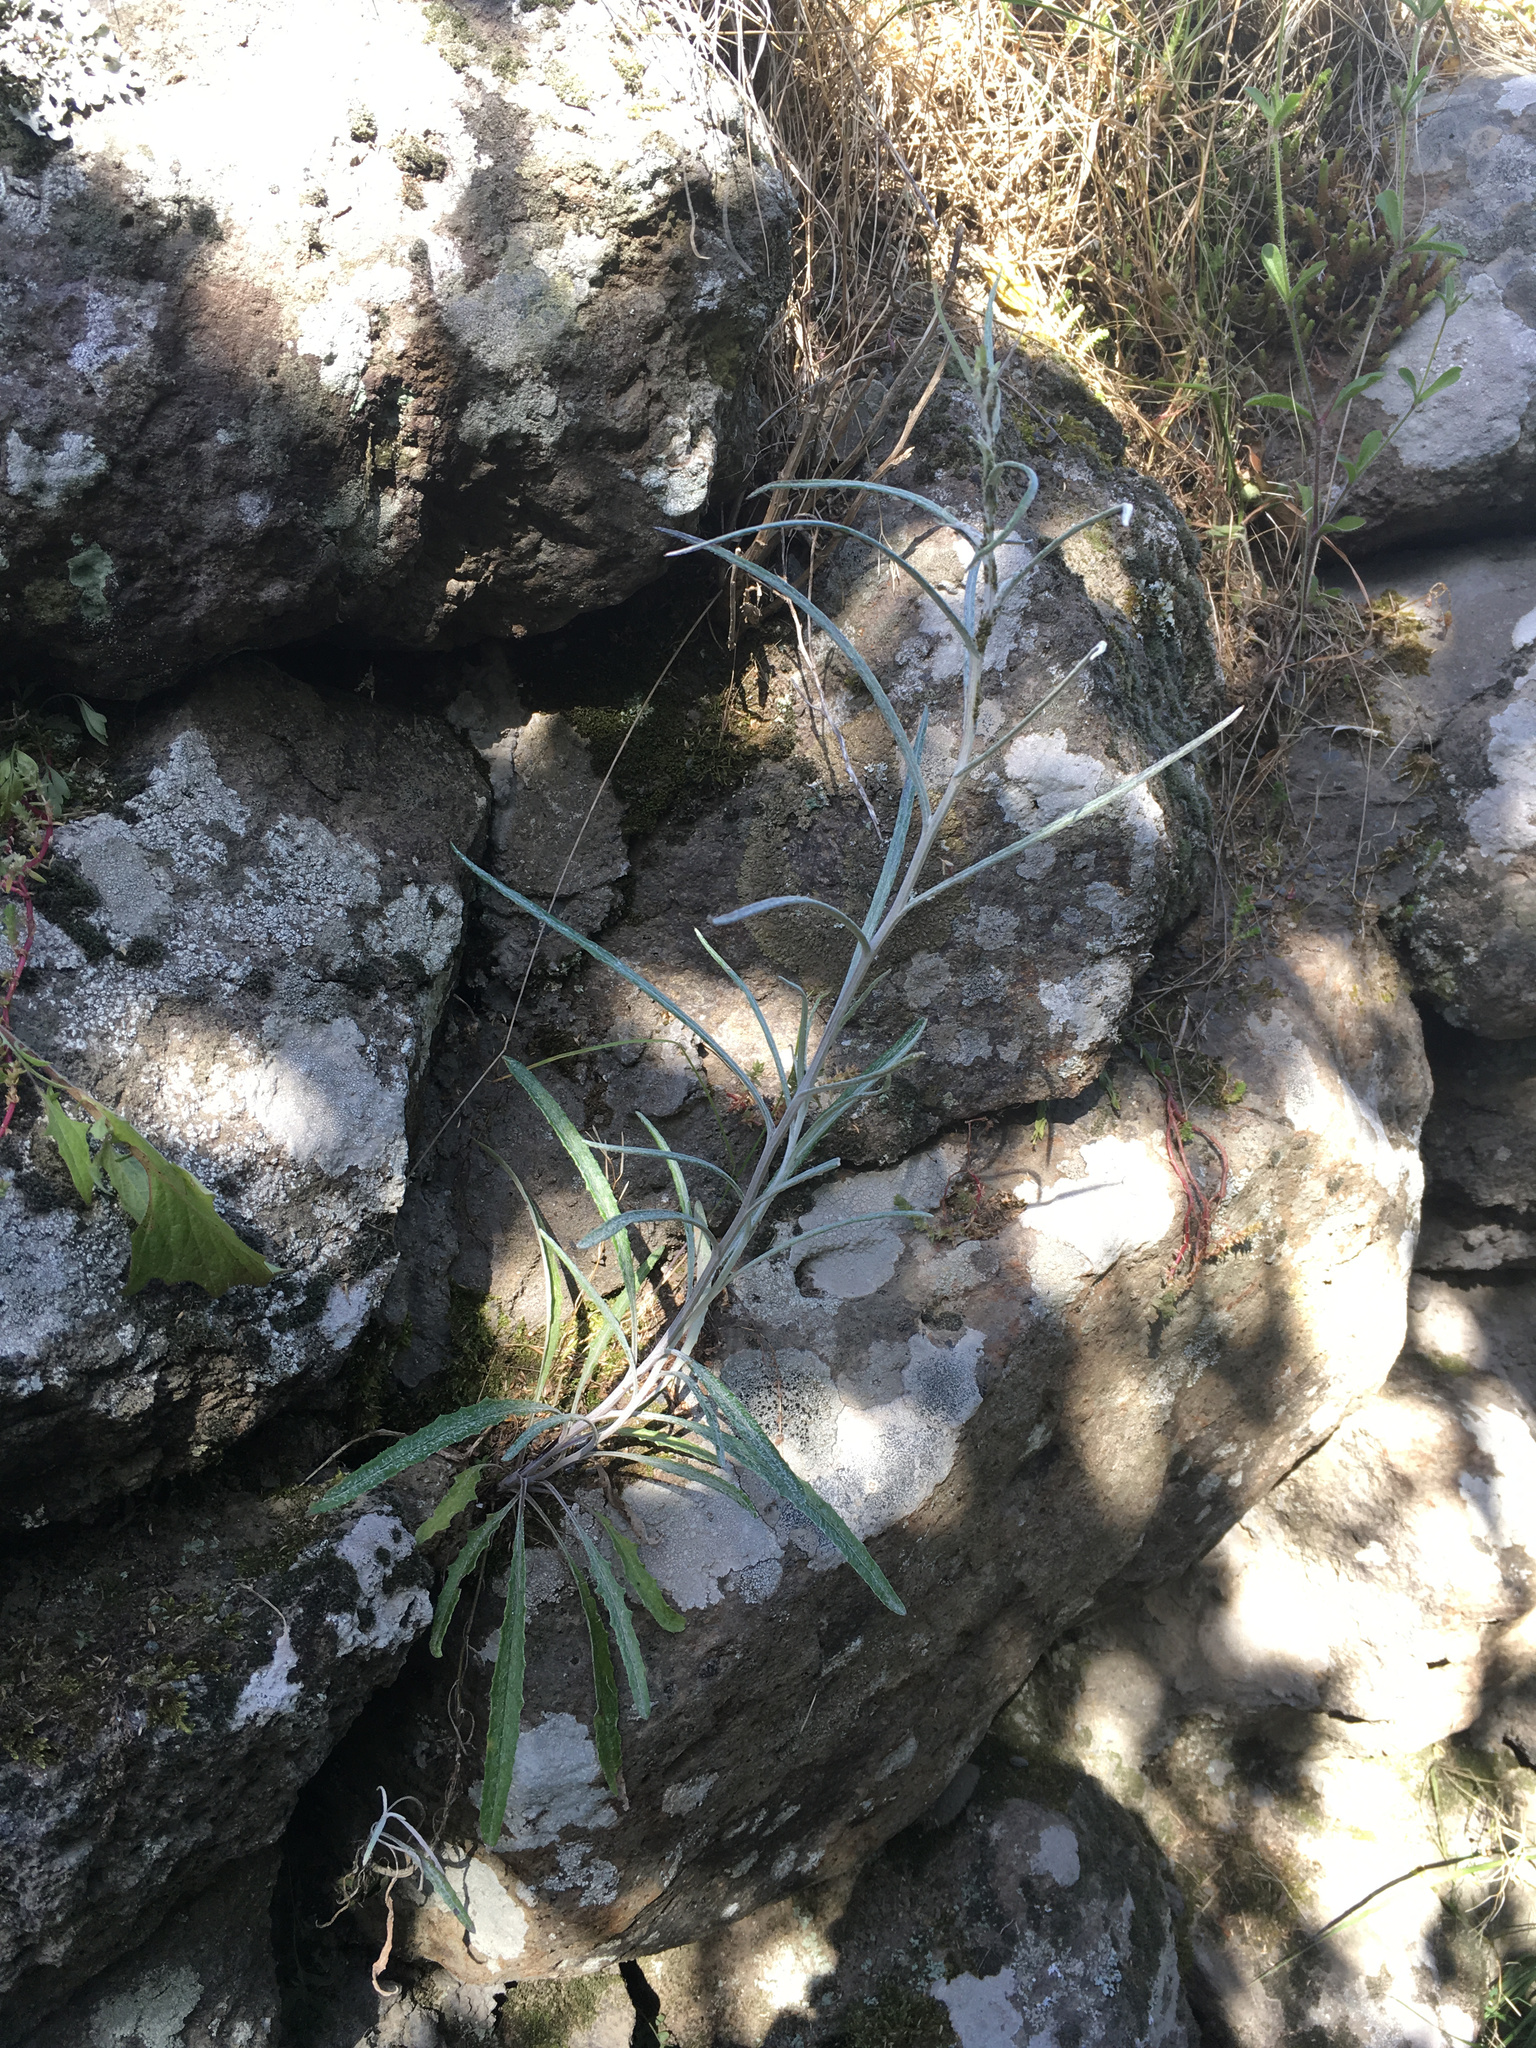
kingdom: Plantae
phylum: Tracheophyta
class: Magnoliopsida
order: Asterales
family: Asteraceae
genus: Senecio
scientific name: Senecio quadridentatus
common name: Cotton fireweed
